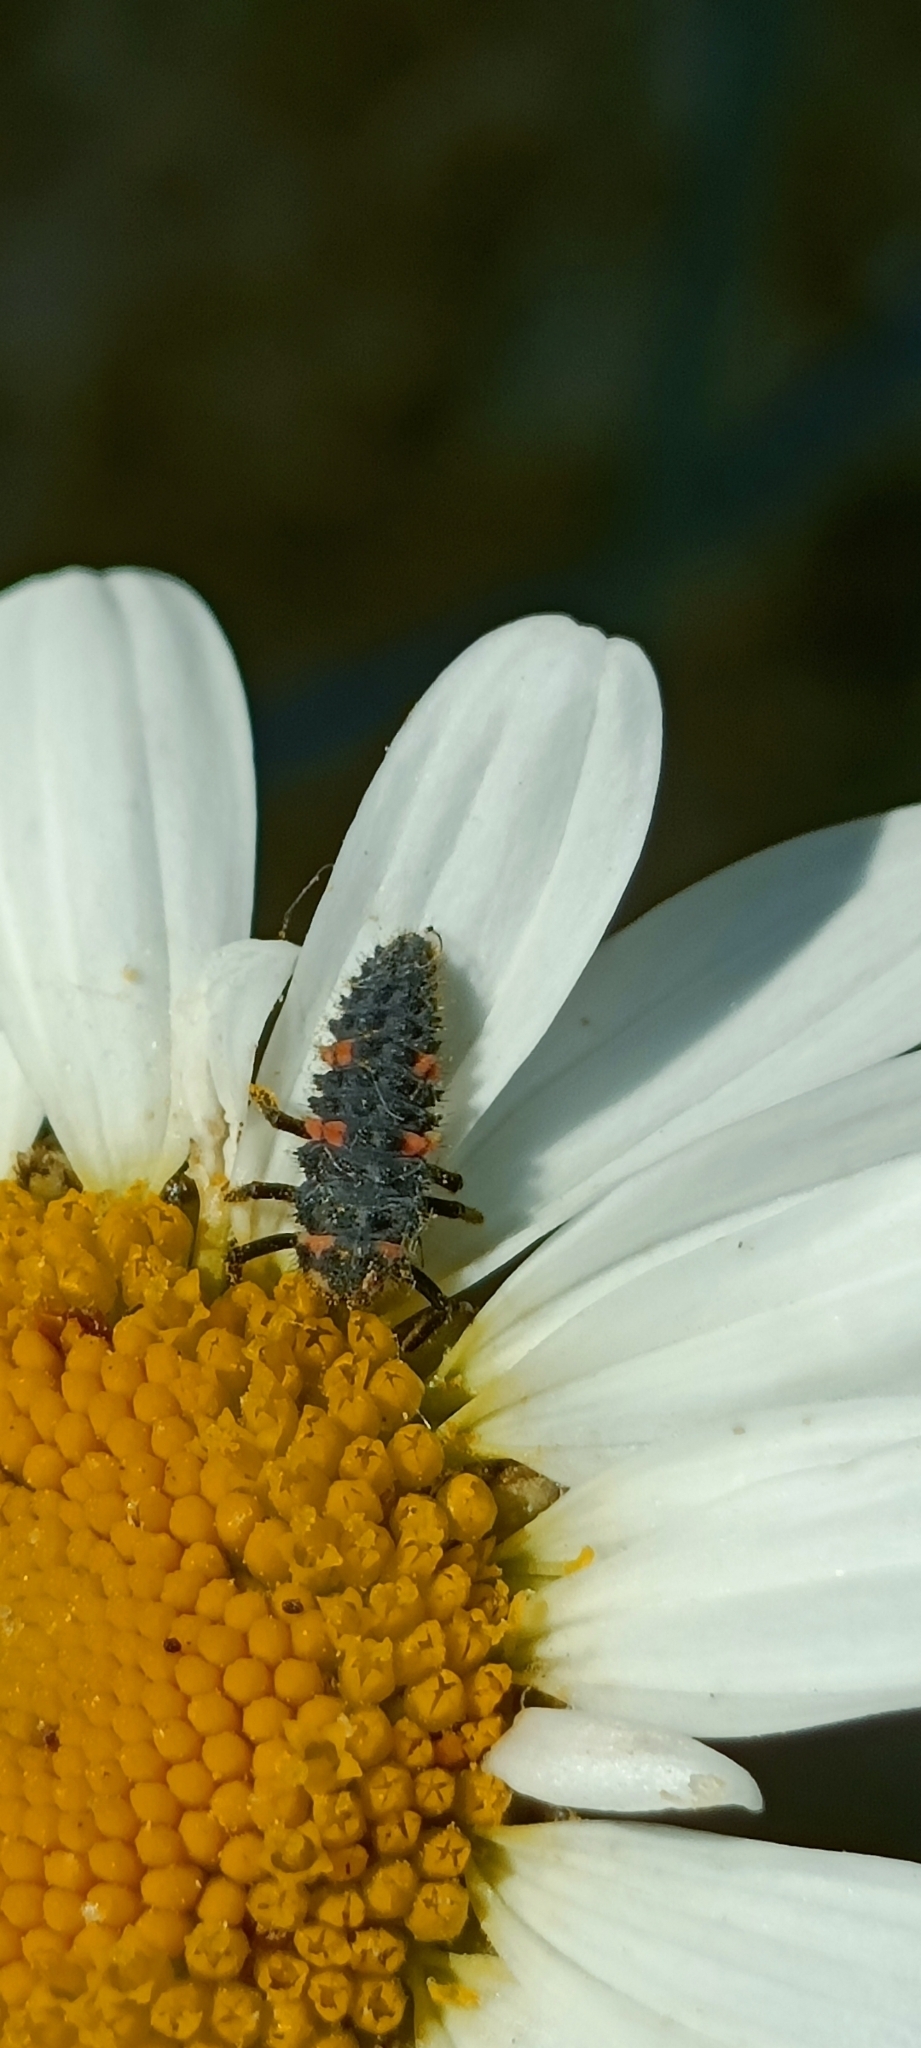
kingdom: Animalia
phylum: Arthropoda
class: Insecta
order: Coleoptera
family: Coccinellidae
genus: Coccinella
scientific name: Coccinella septempunctata
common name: Sevenspotted lady beetle
